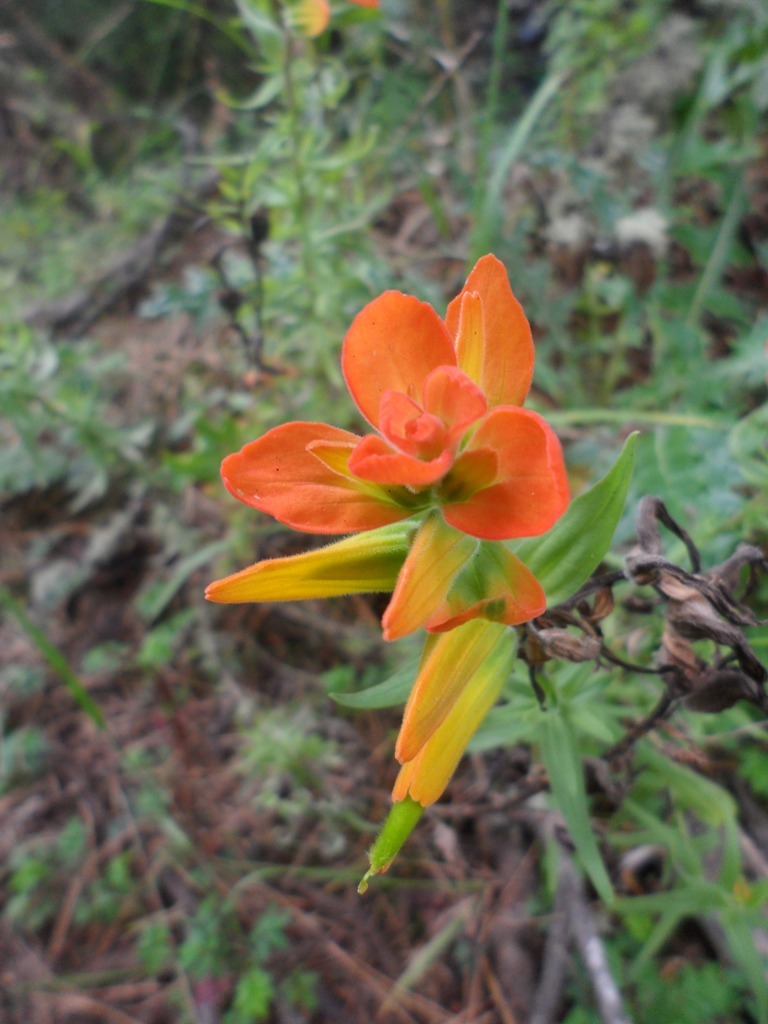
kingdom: Plantae
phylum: Tracheophyta
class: Magnoliopsida
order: Lamiales
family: Orobanchaceae
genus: Castilleja
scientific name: Castilleja integrifolia
